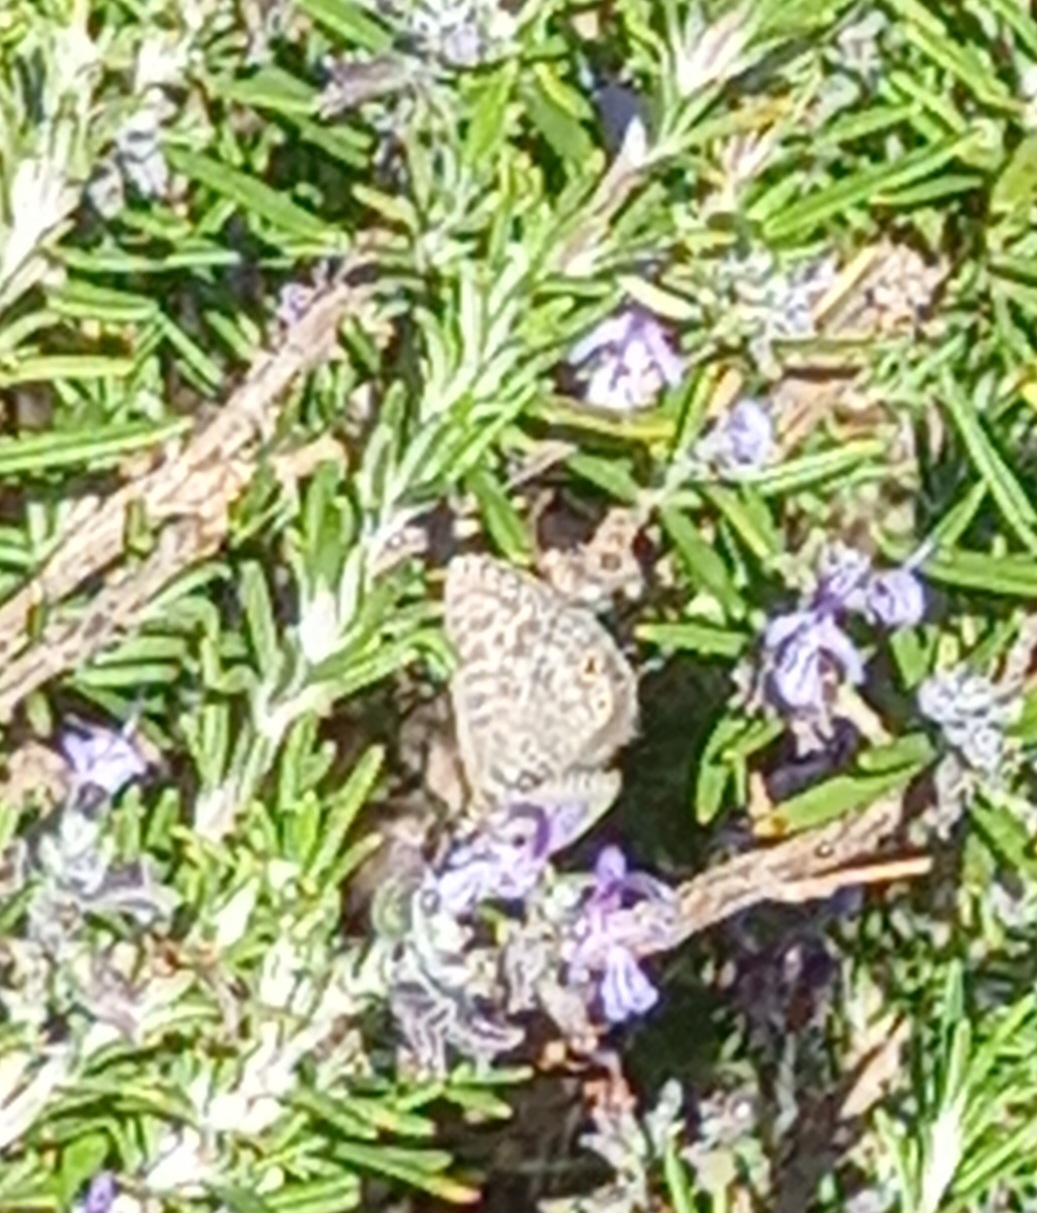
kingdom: Animalia
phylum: Arthropoda
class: Insecta
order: Lepidoptera
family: Lycaenidae
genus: Leptotes
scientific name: Leptotes pirithous
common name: Lang's short-tailed blue
